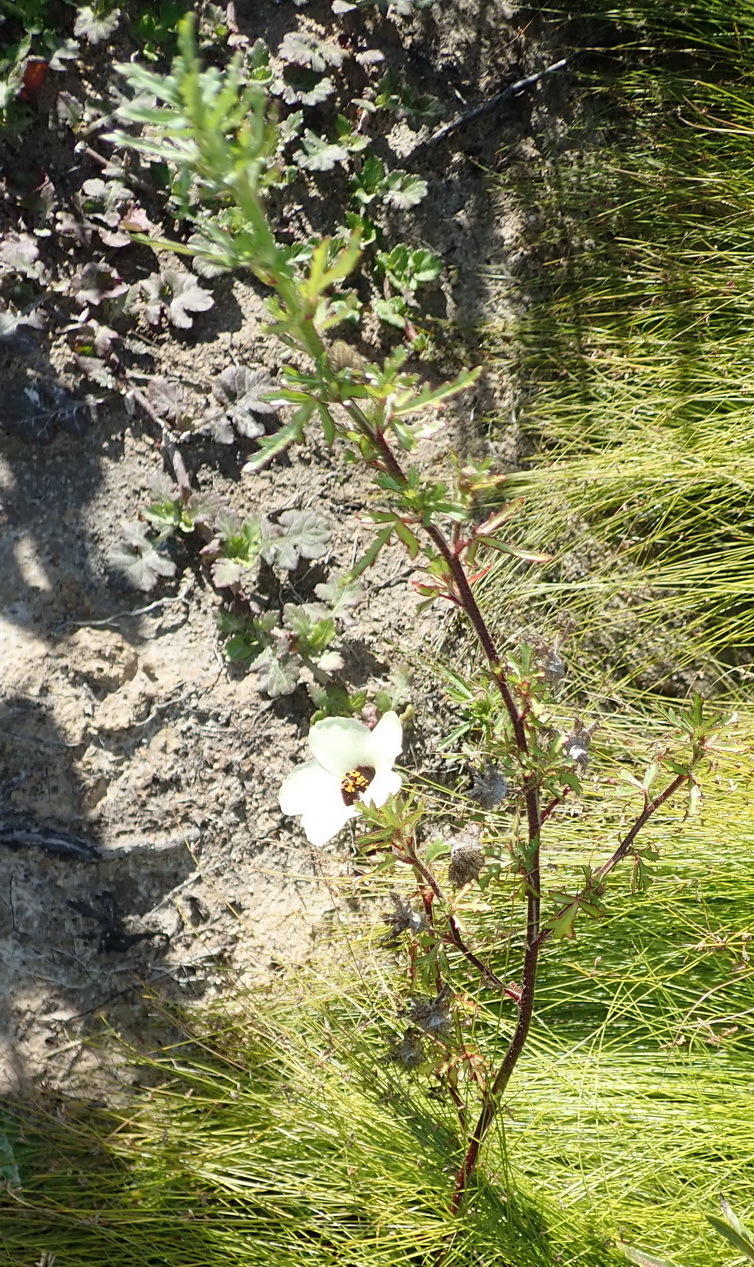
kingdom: Plantae
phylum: Tracheophyta
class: Magnoliopsida
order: Malvales
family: Malvaceae
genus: Hibiscus
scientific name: Hibiscus trionum
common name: Bladder ketmia
